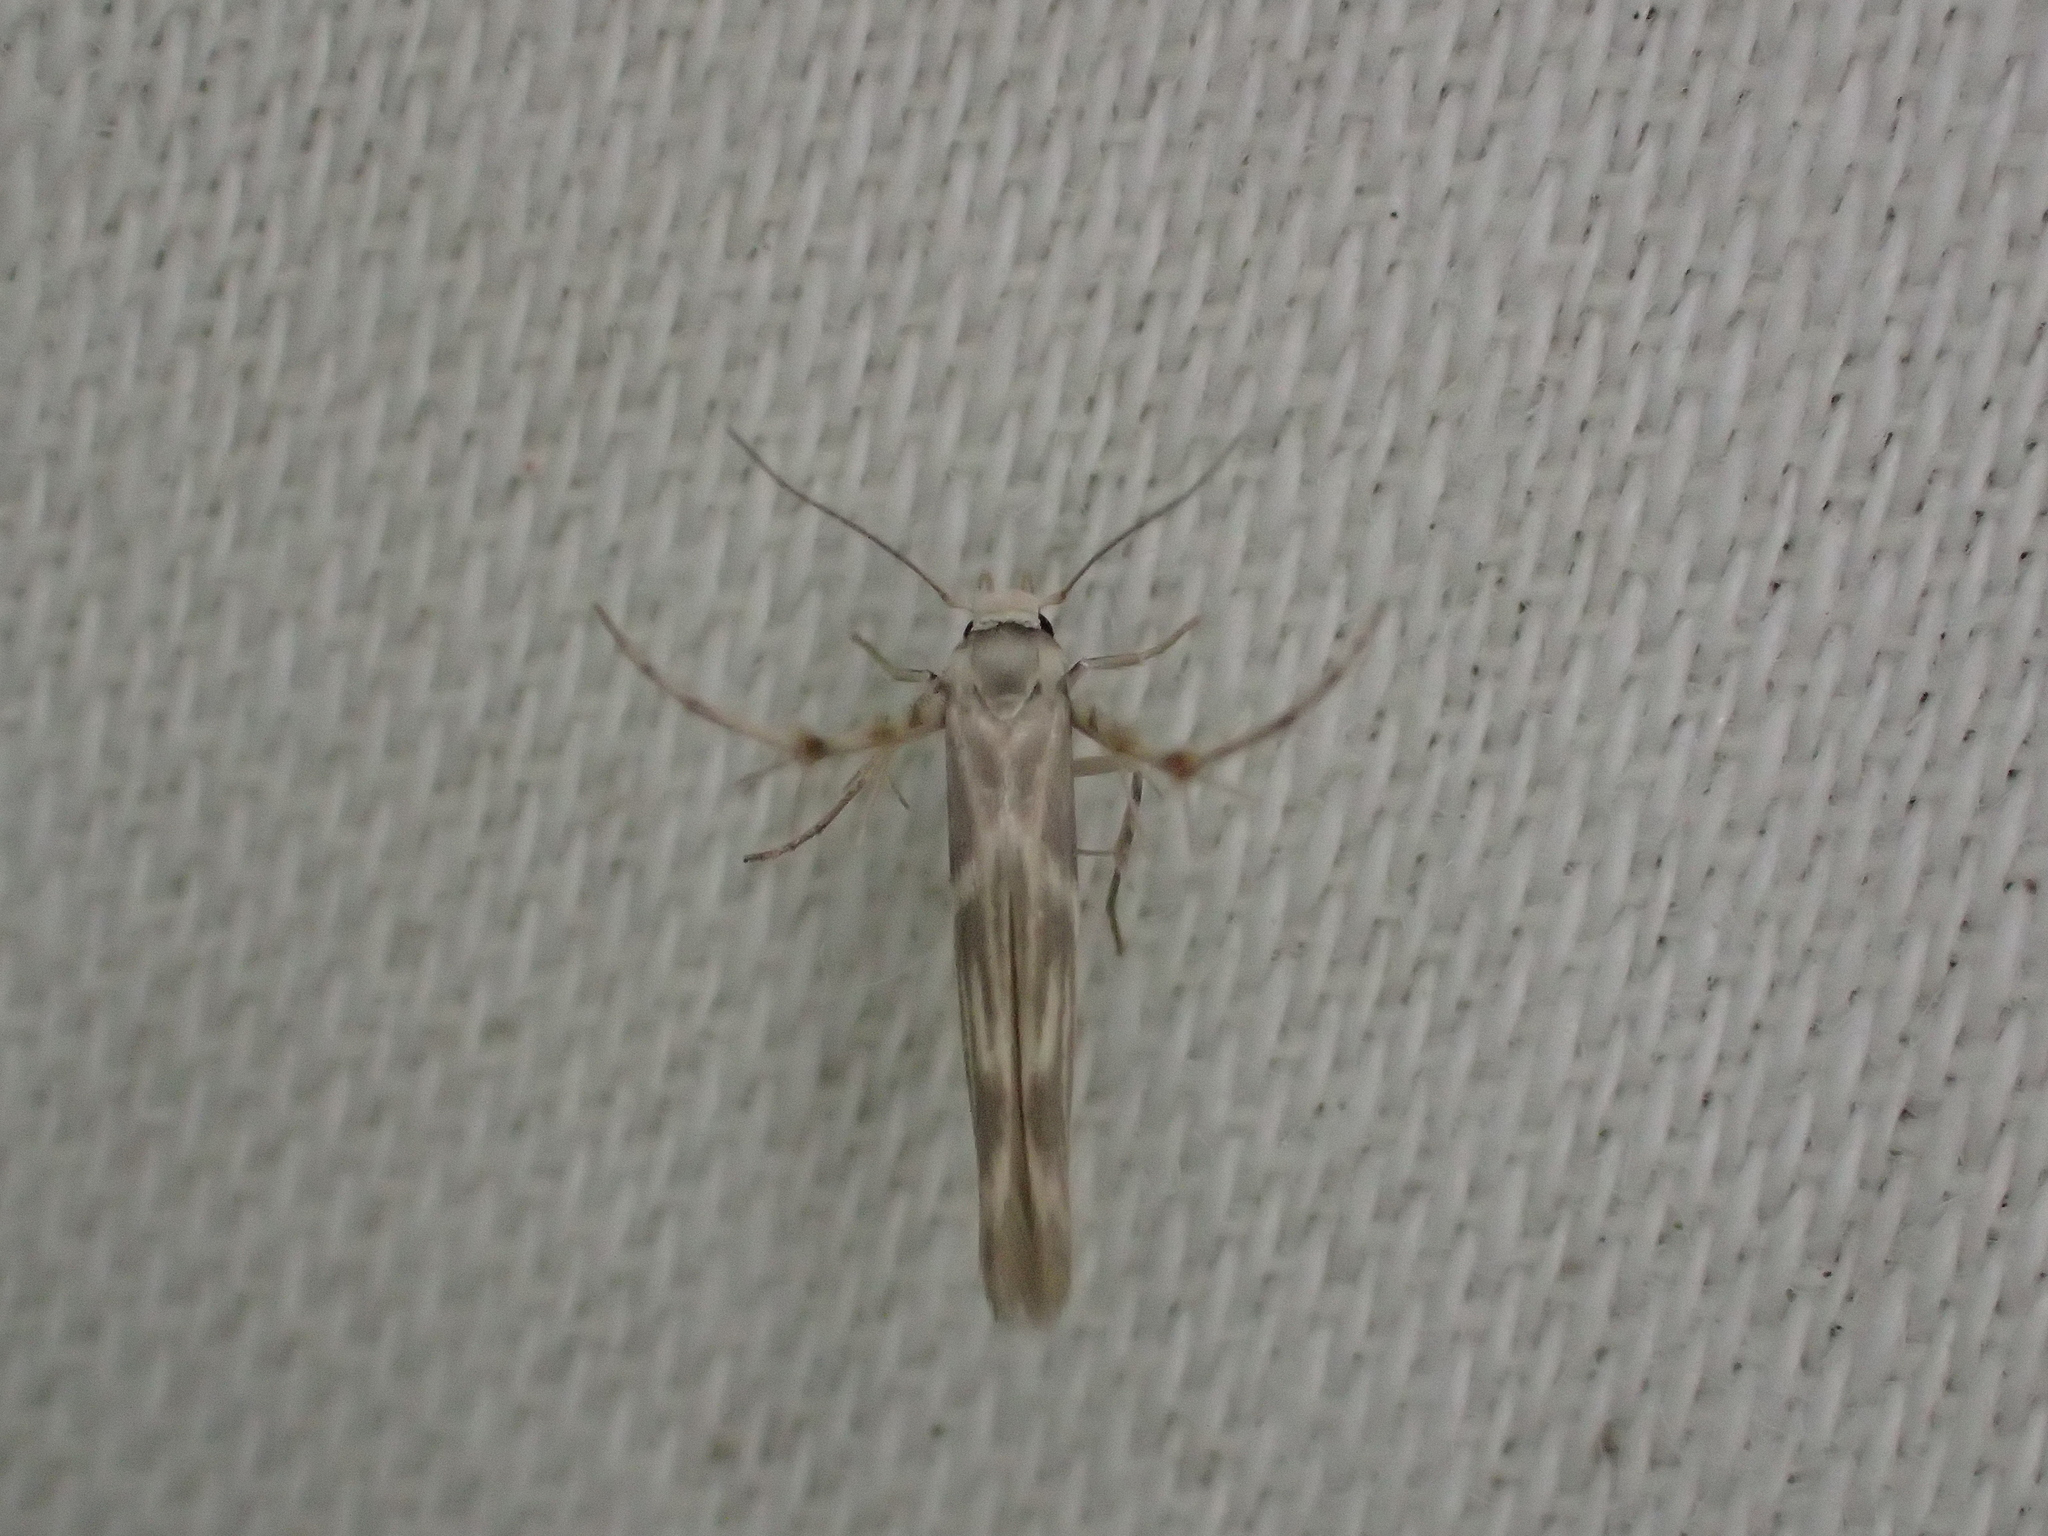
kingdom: Animalia
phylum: Arthropoda
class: Insecta
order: Lepidoptera
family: Gelechiidae
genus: Palumbina
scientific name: Palumbina guerinii
